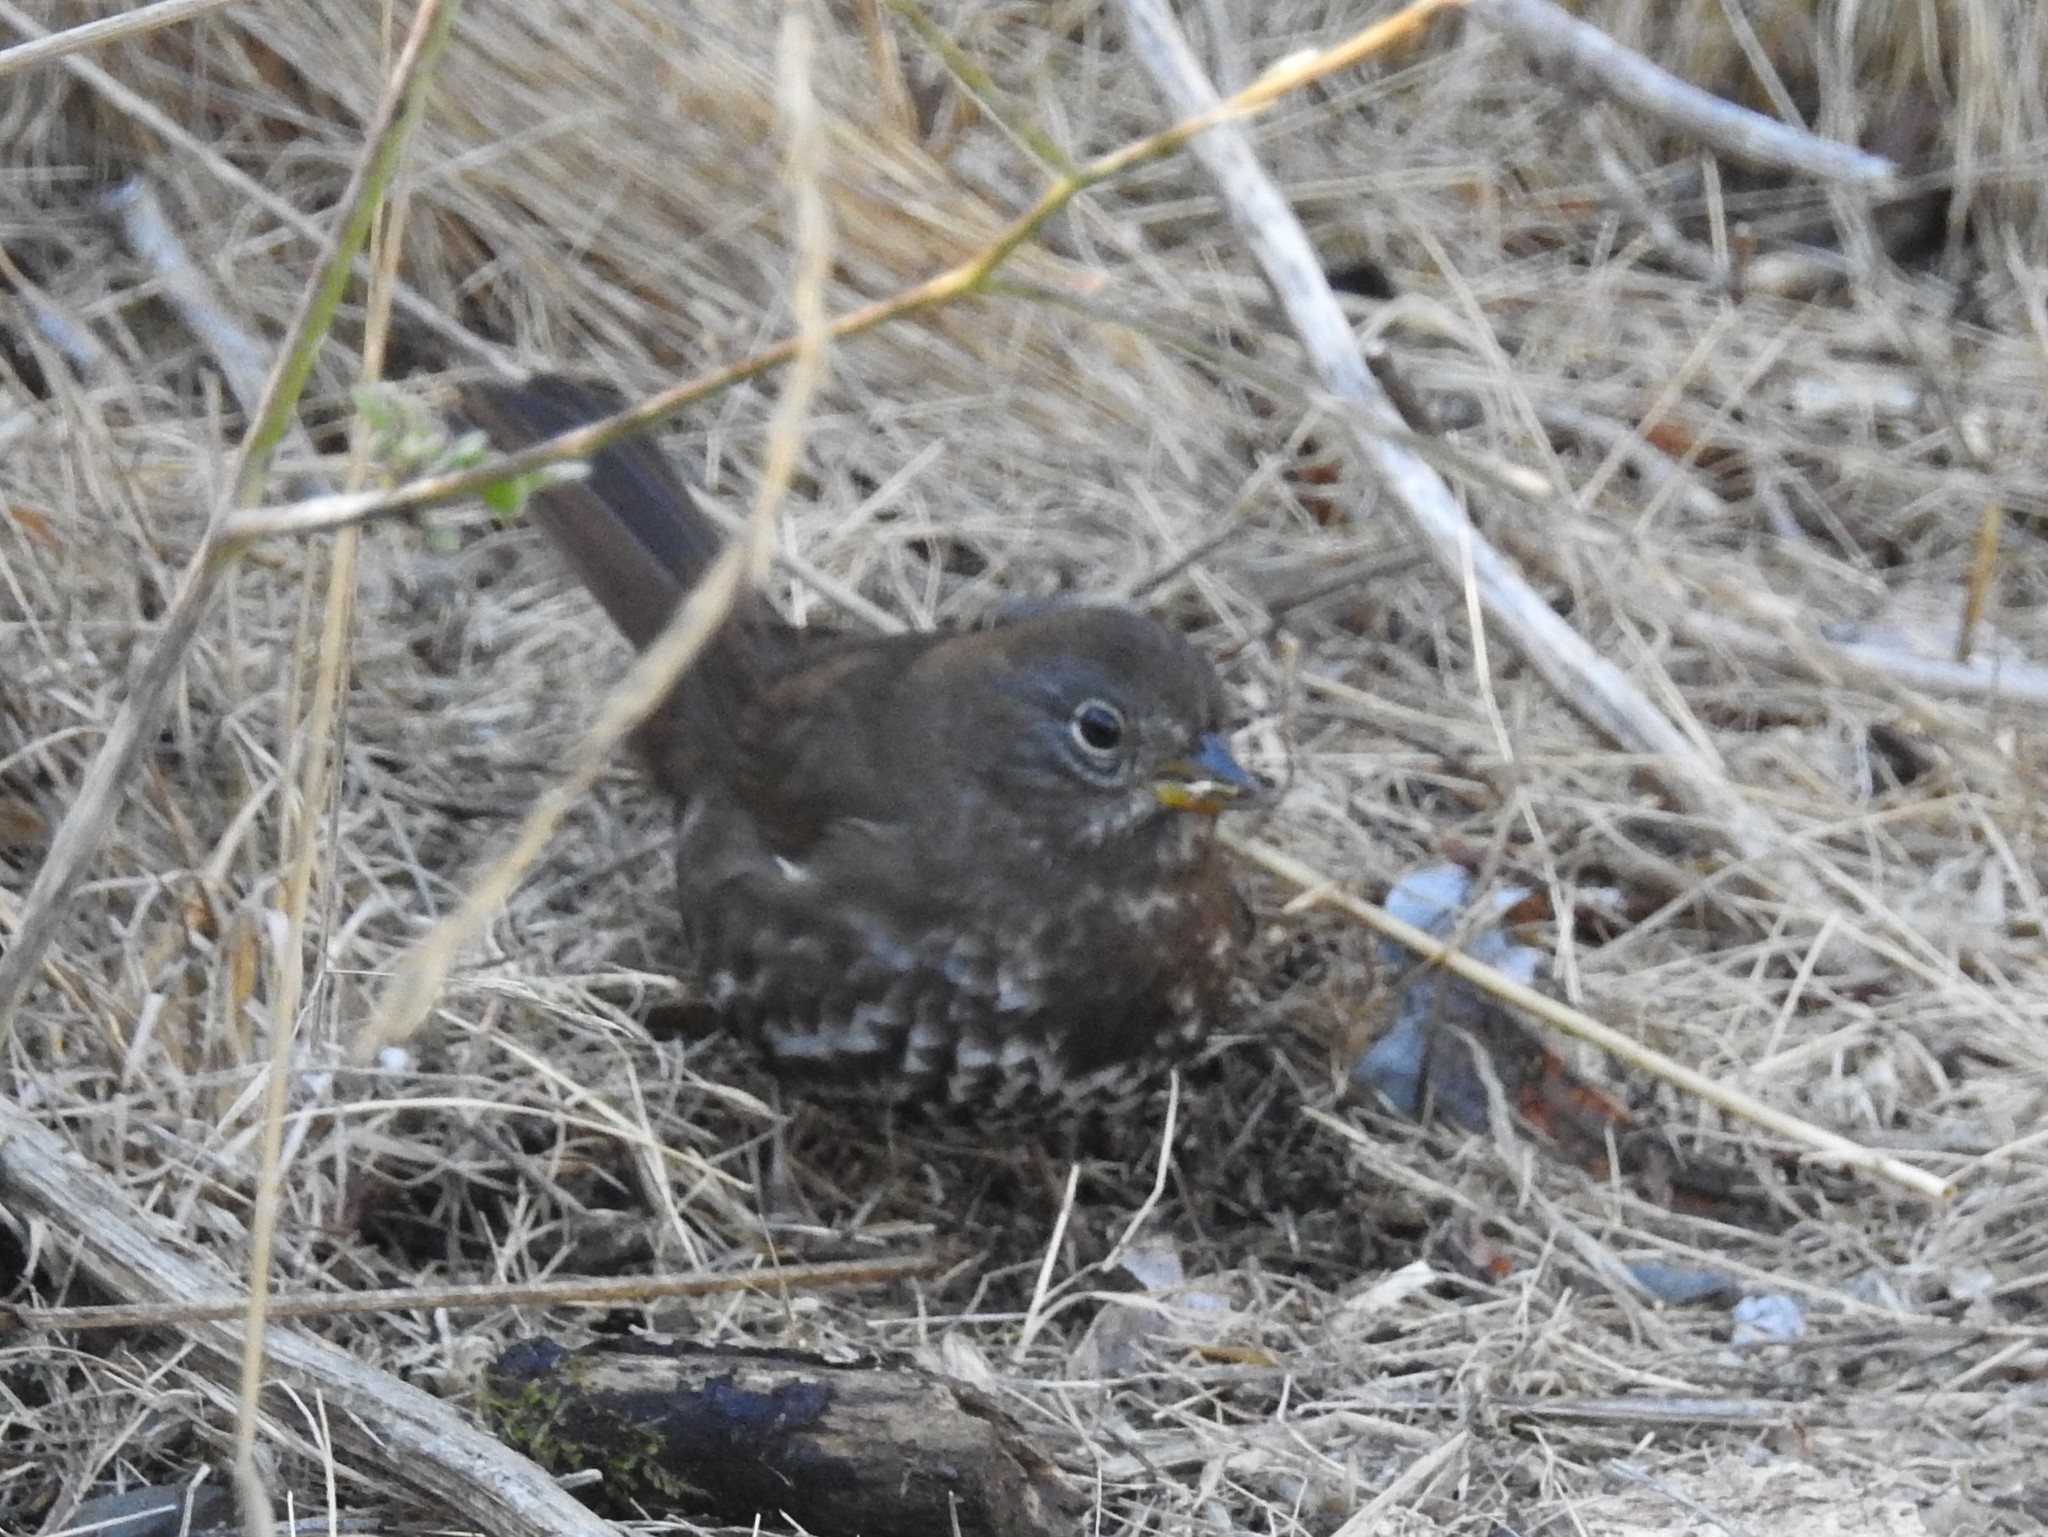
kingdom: Animalia
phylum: Chordata
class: Aves
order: Passeriformes
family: Passerellidae
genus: Passerella
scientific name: Passerella iliaca
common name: Fox sparrow
